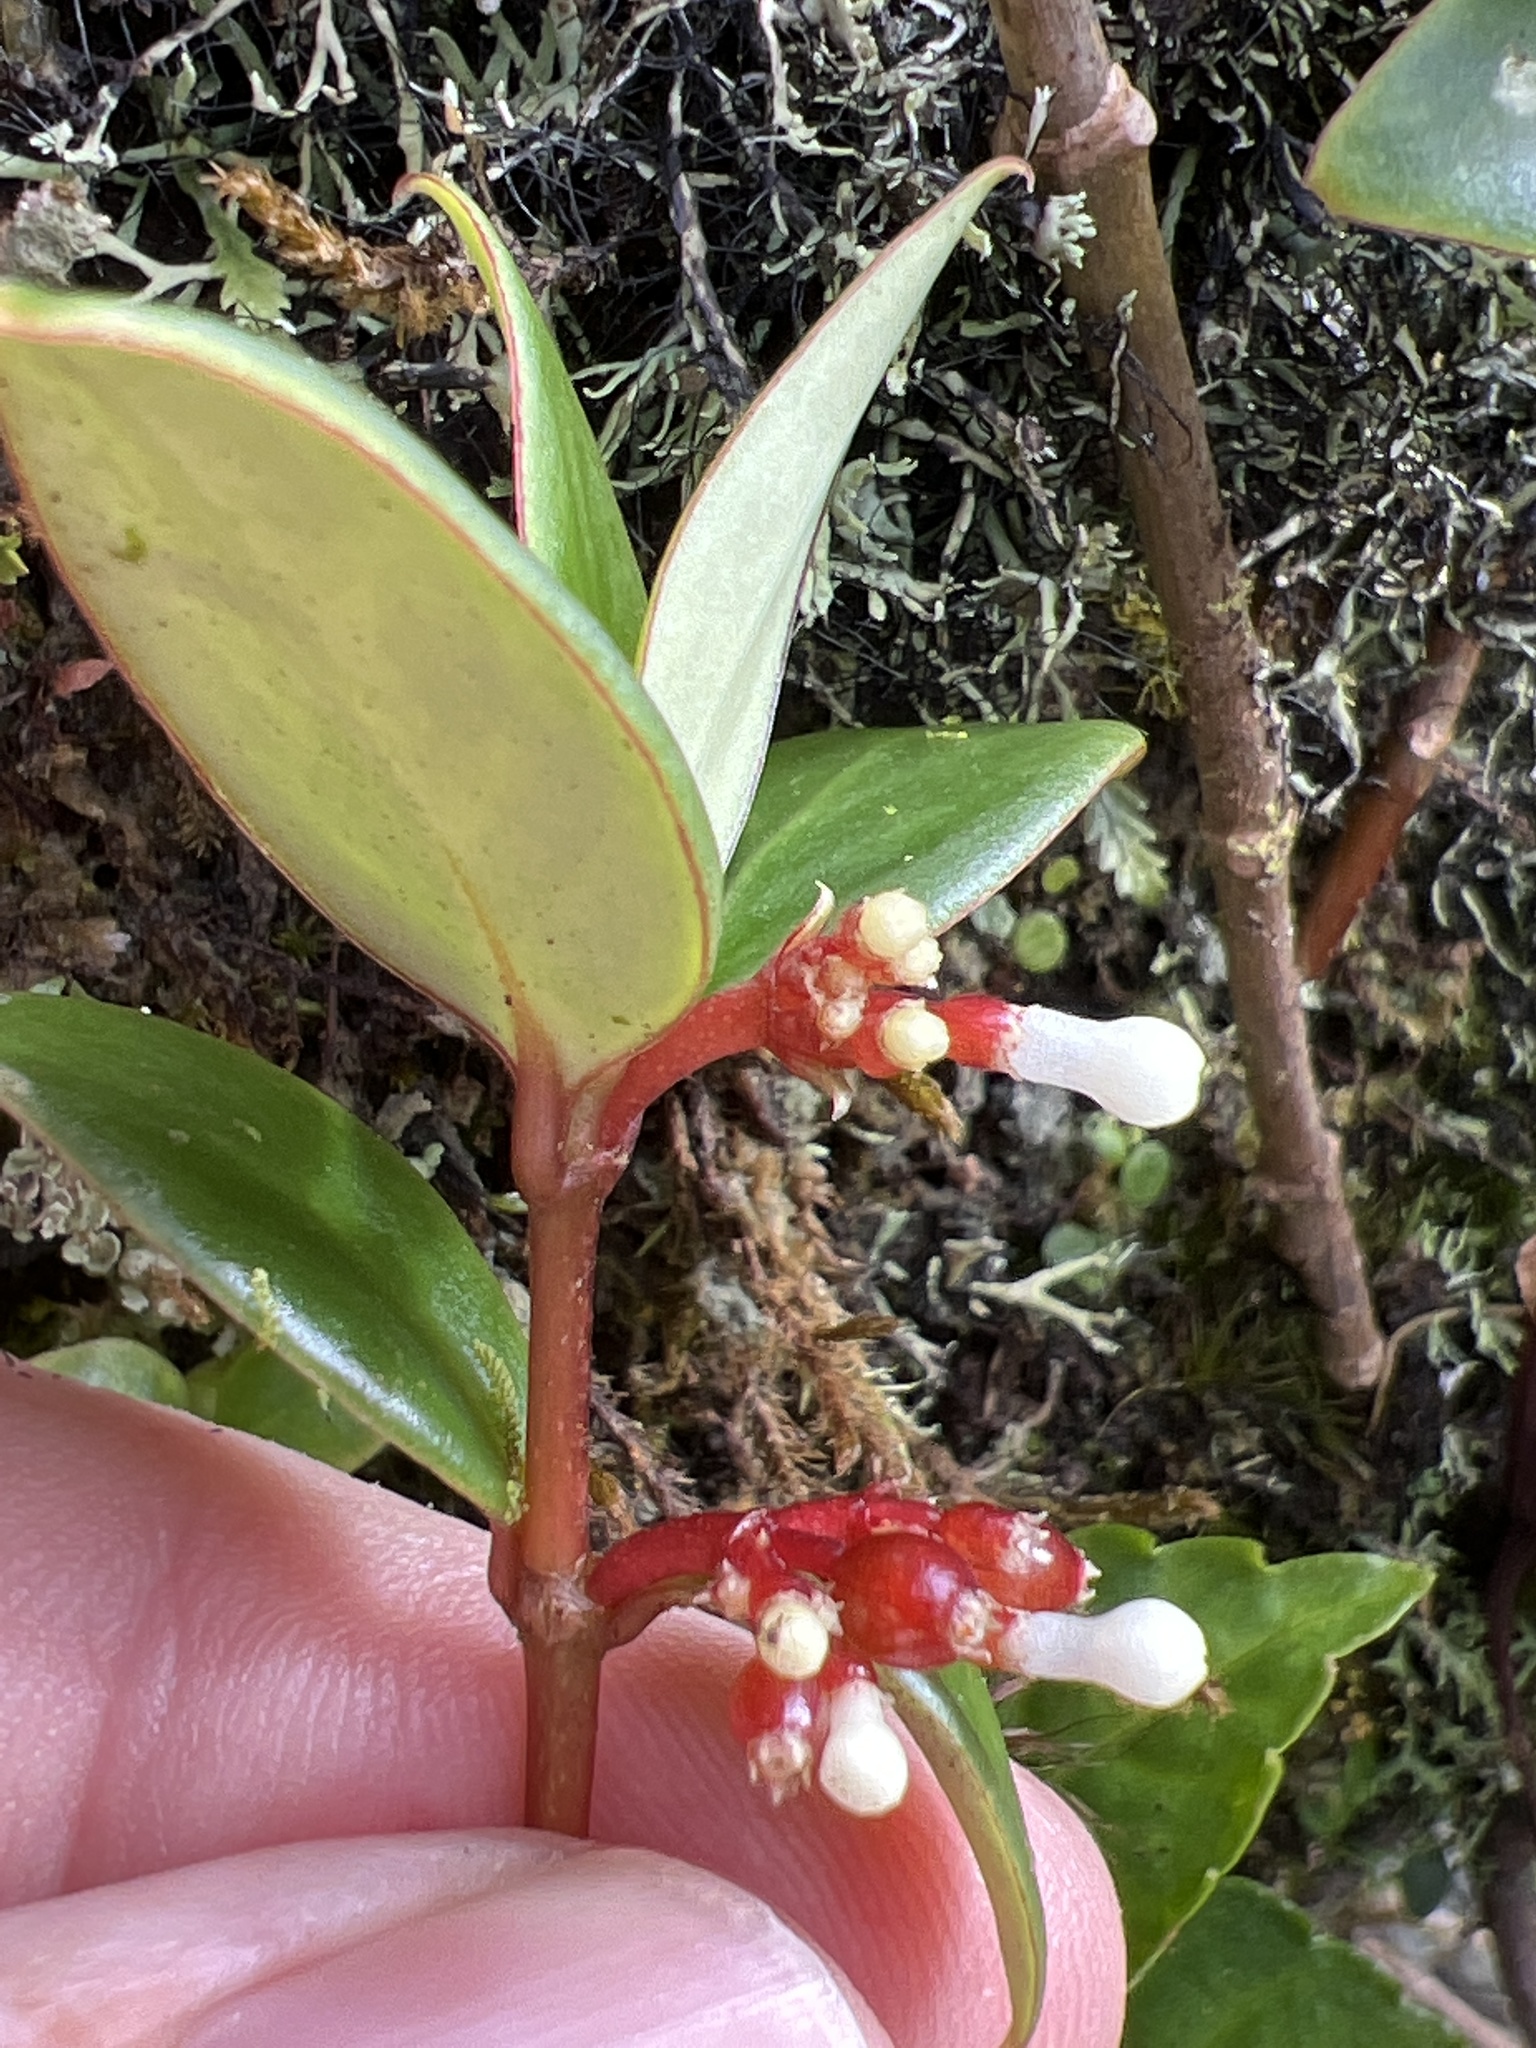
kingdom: Plantae
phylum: Tracheophyta
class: Magnoliopsida
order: Gentianales
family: Rubiaceae
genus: Notopleura
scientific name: Notopleura parasitica
